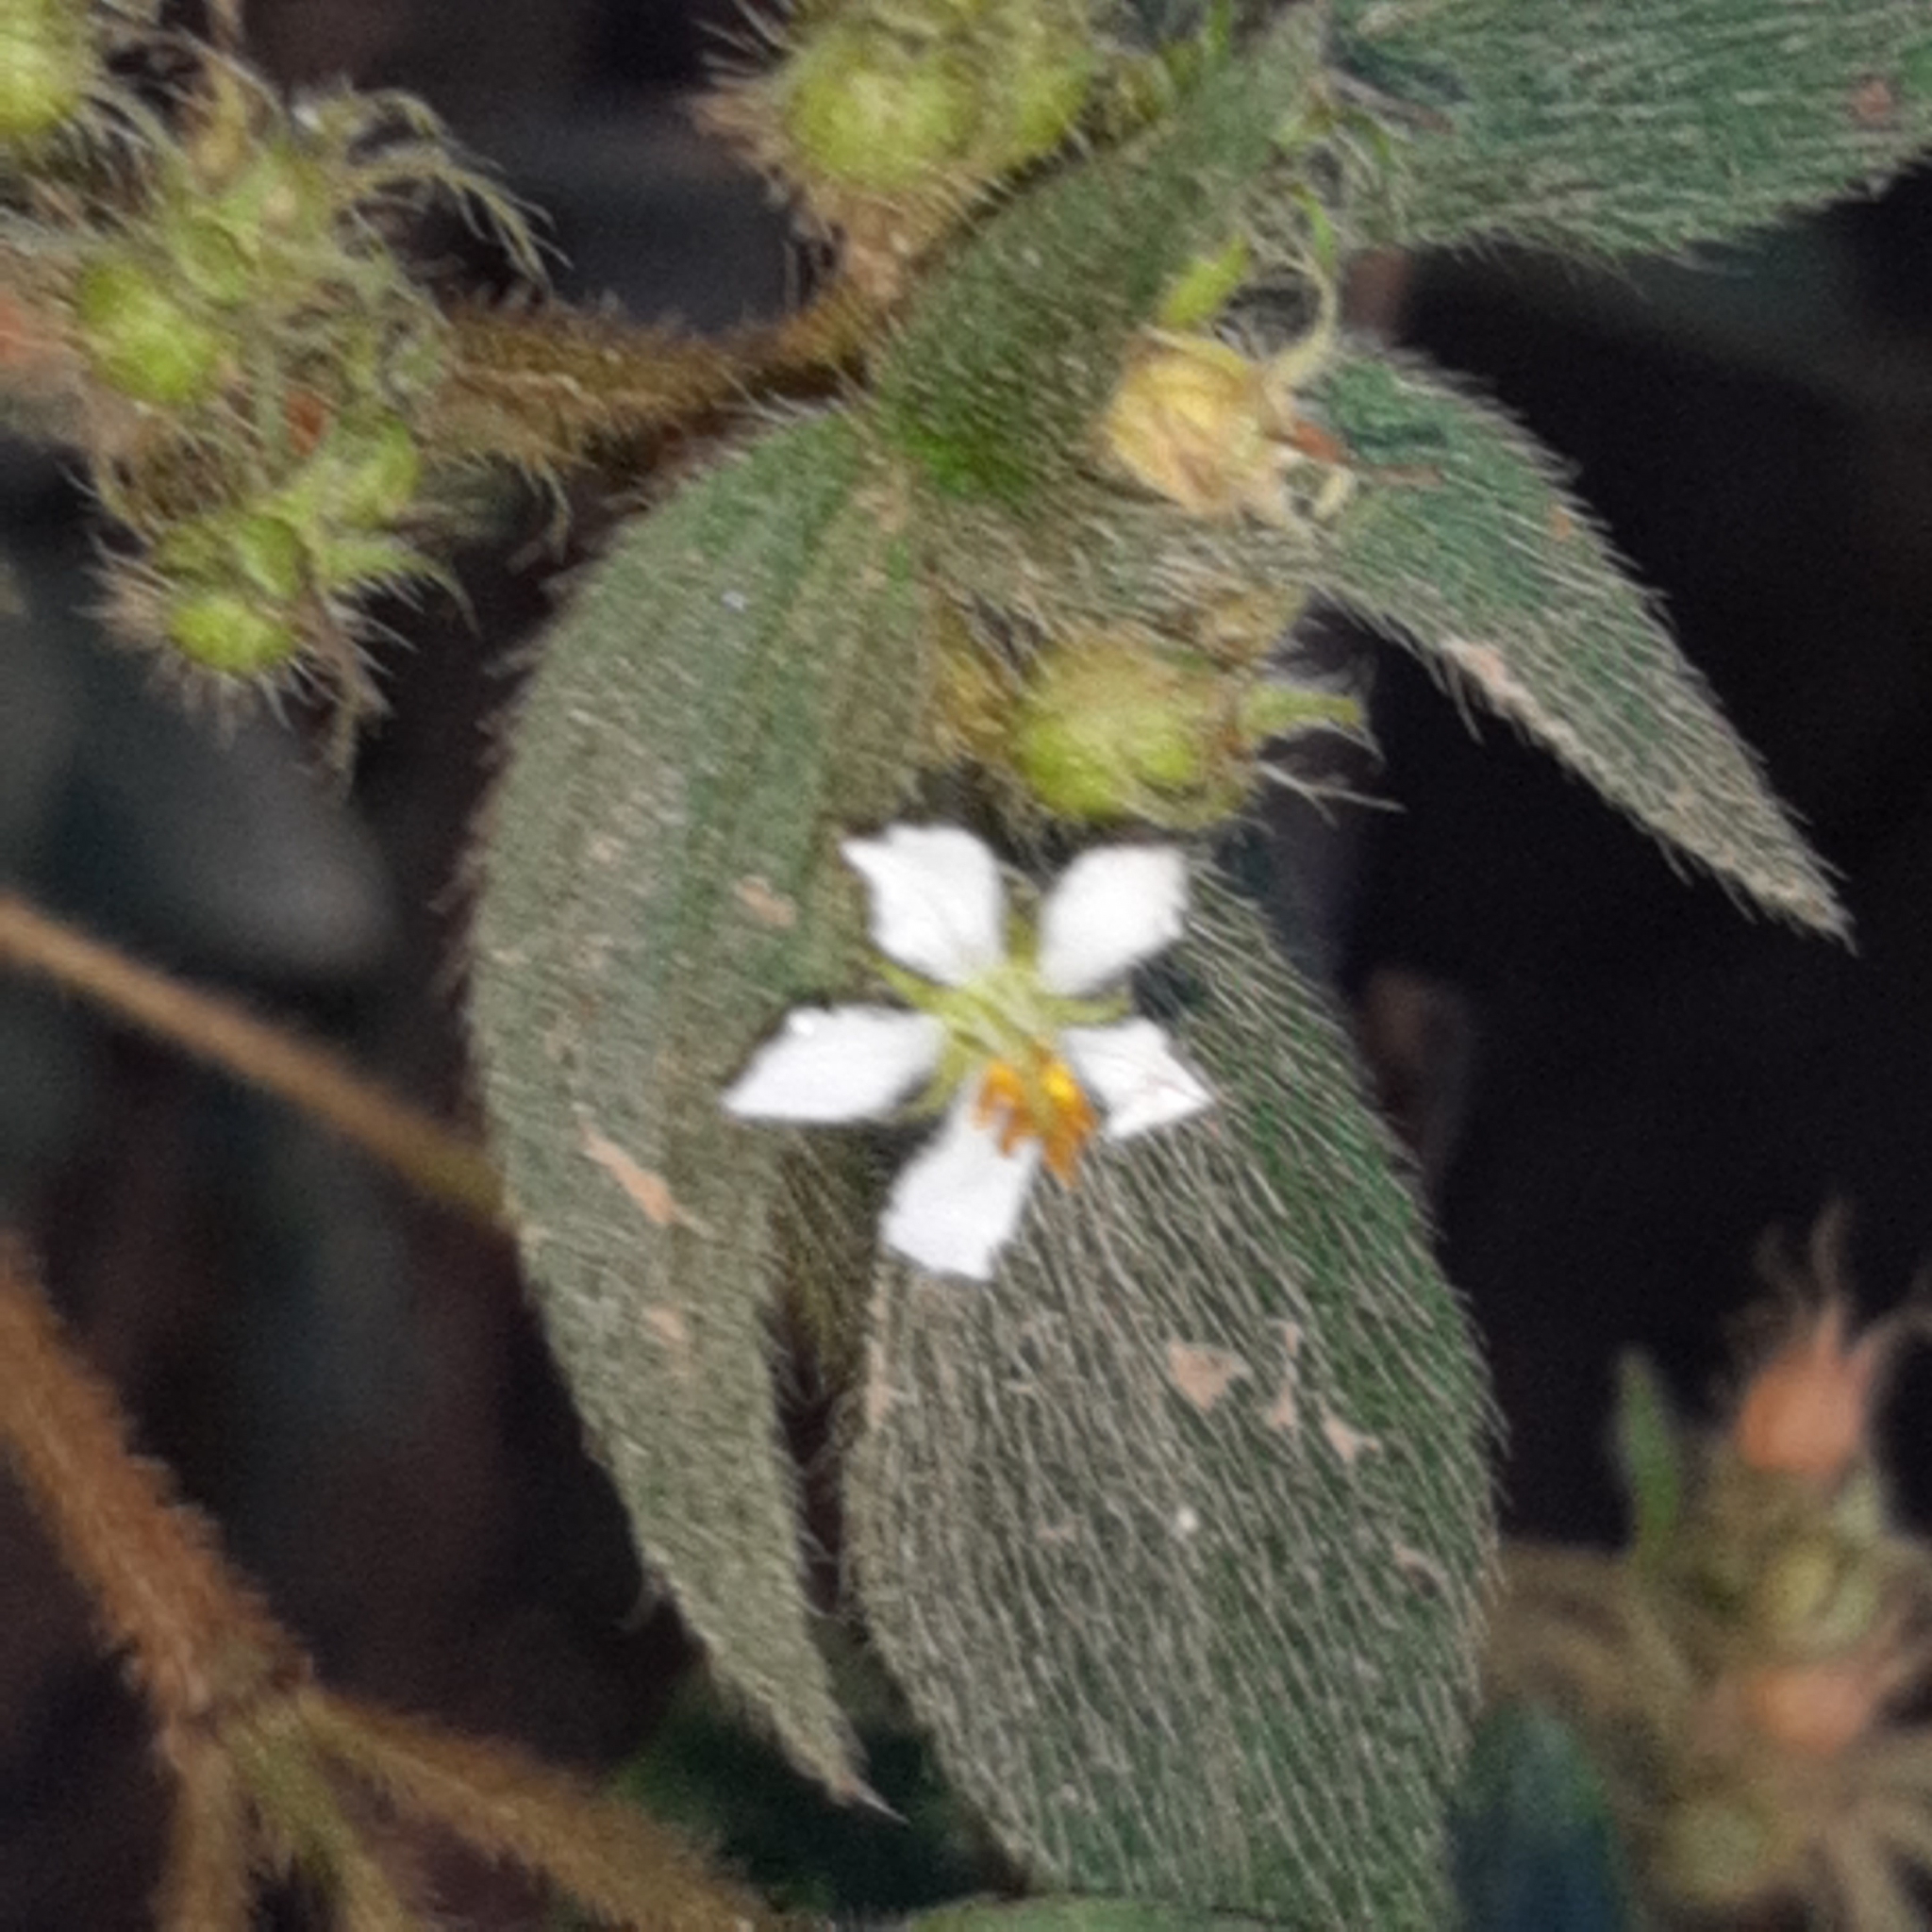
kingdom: Plantae
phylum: Tracheophyta
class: Magnoliopsida
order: Myrtales
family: Melastomataceae
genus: Chaetogastra
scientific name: Chaetogastra longifolia
